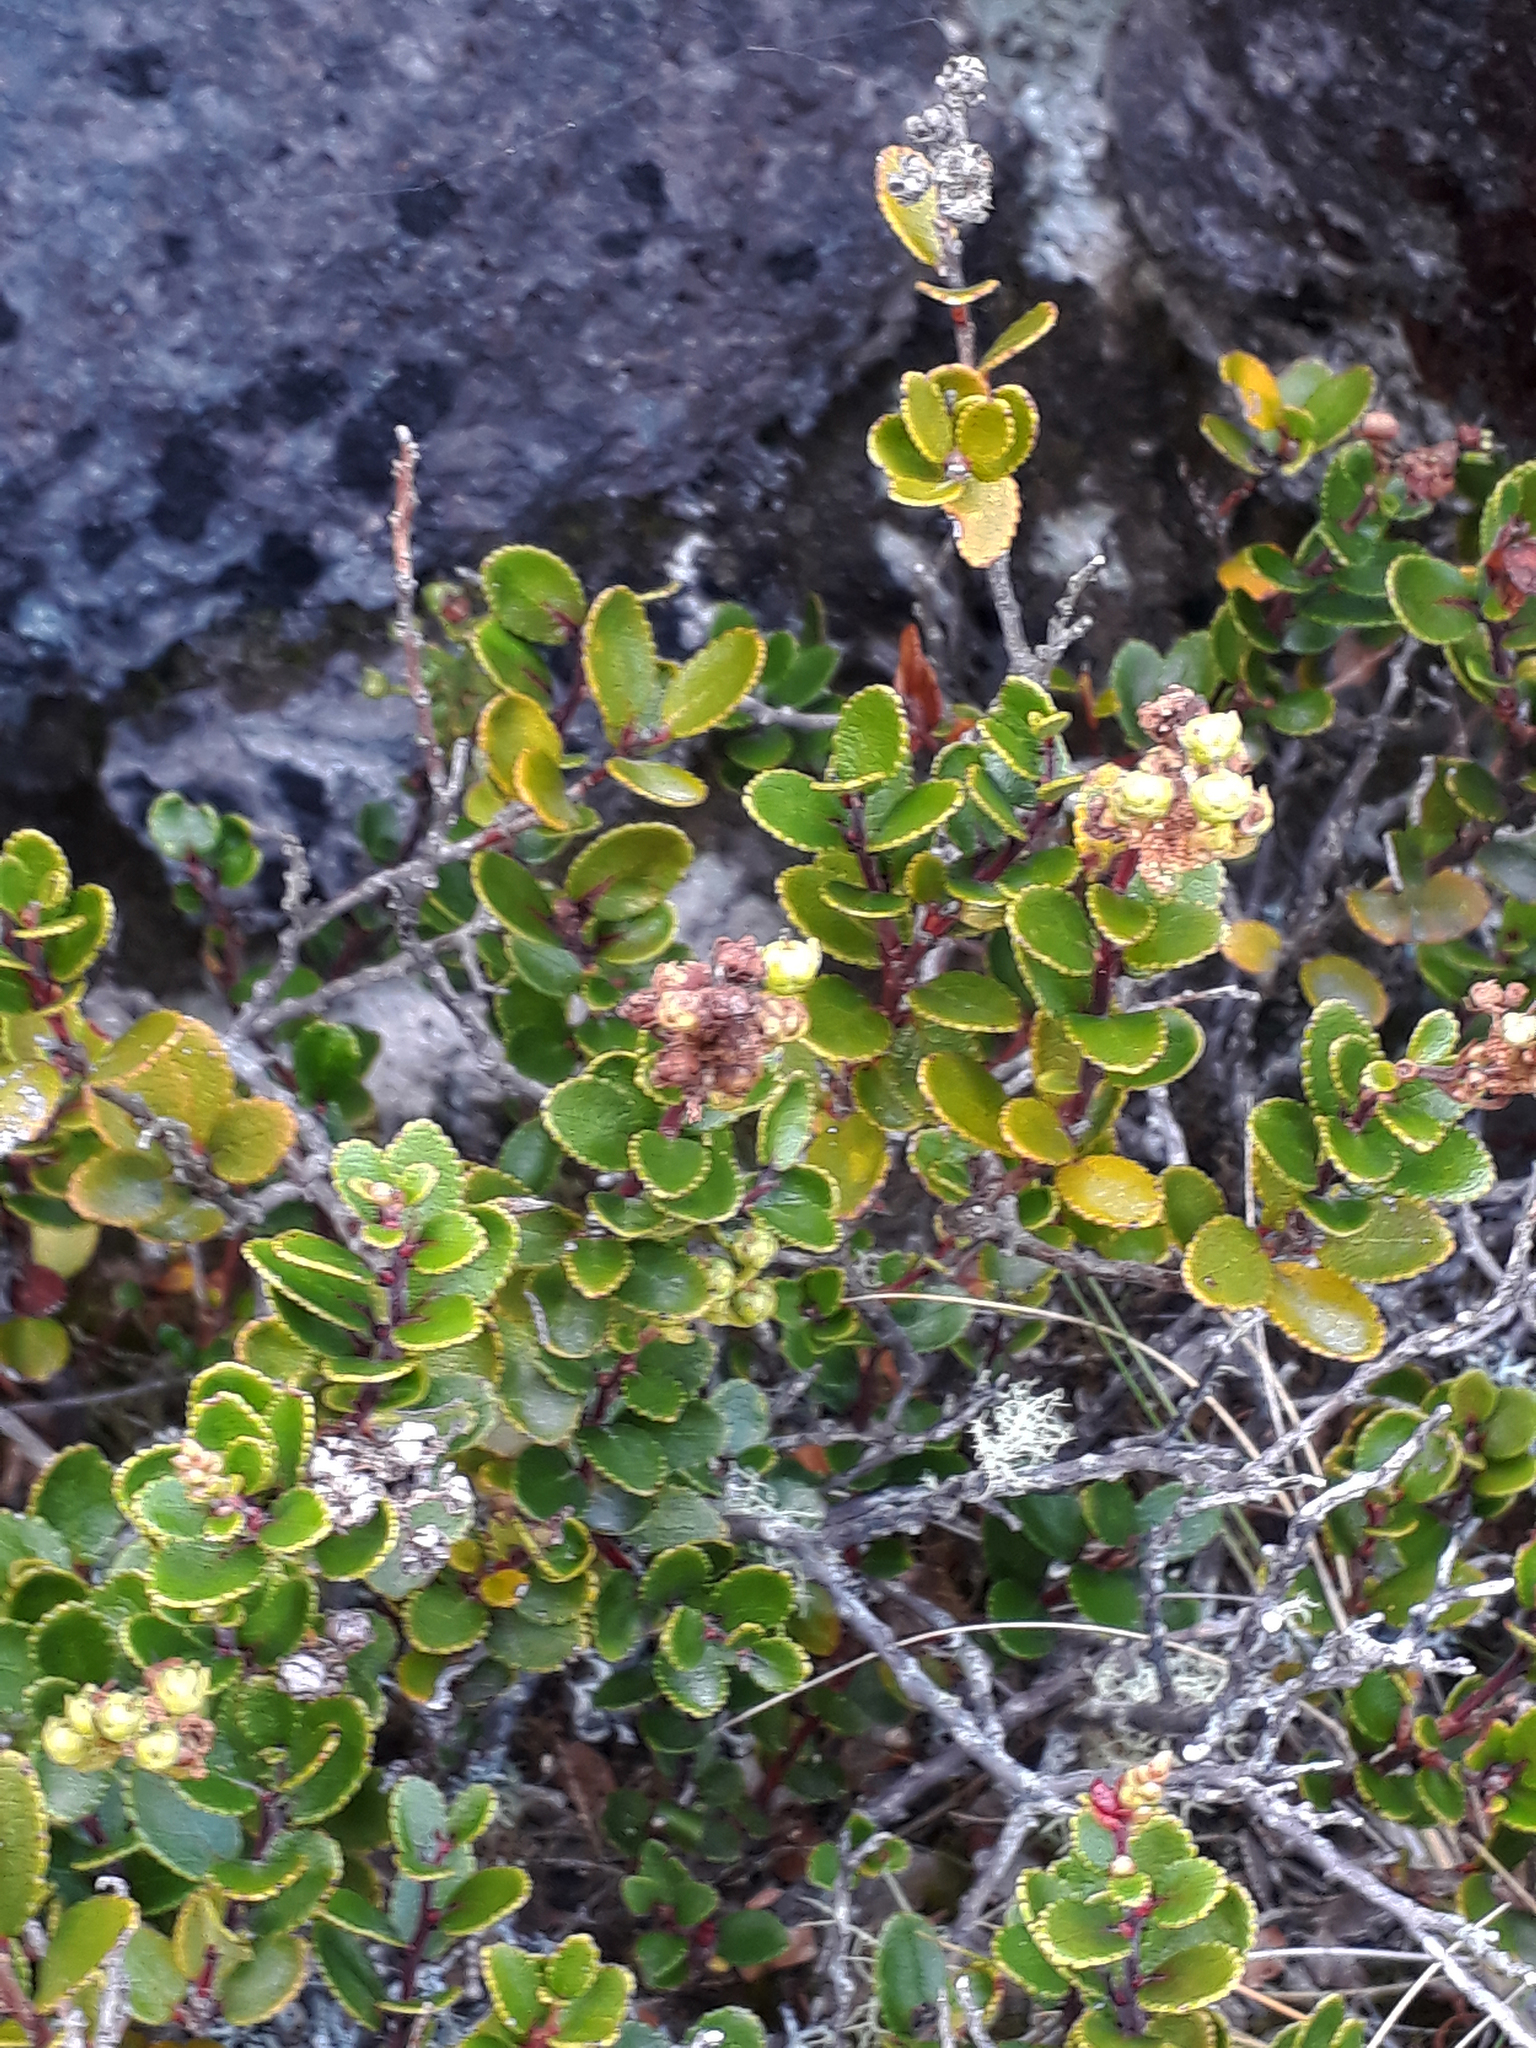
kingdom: Plantae
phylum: Tracheophyta
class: Magnoliopsida
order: Ericales
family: Ericaceae
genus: Gaultheria
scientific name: Gaultheria colensoi
